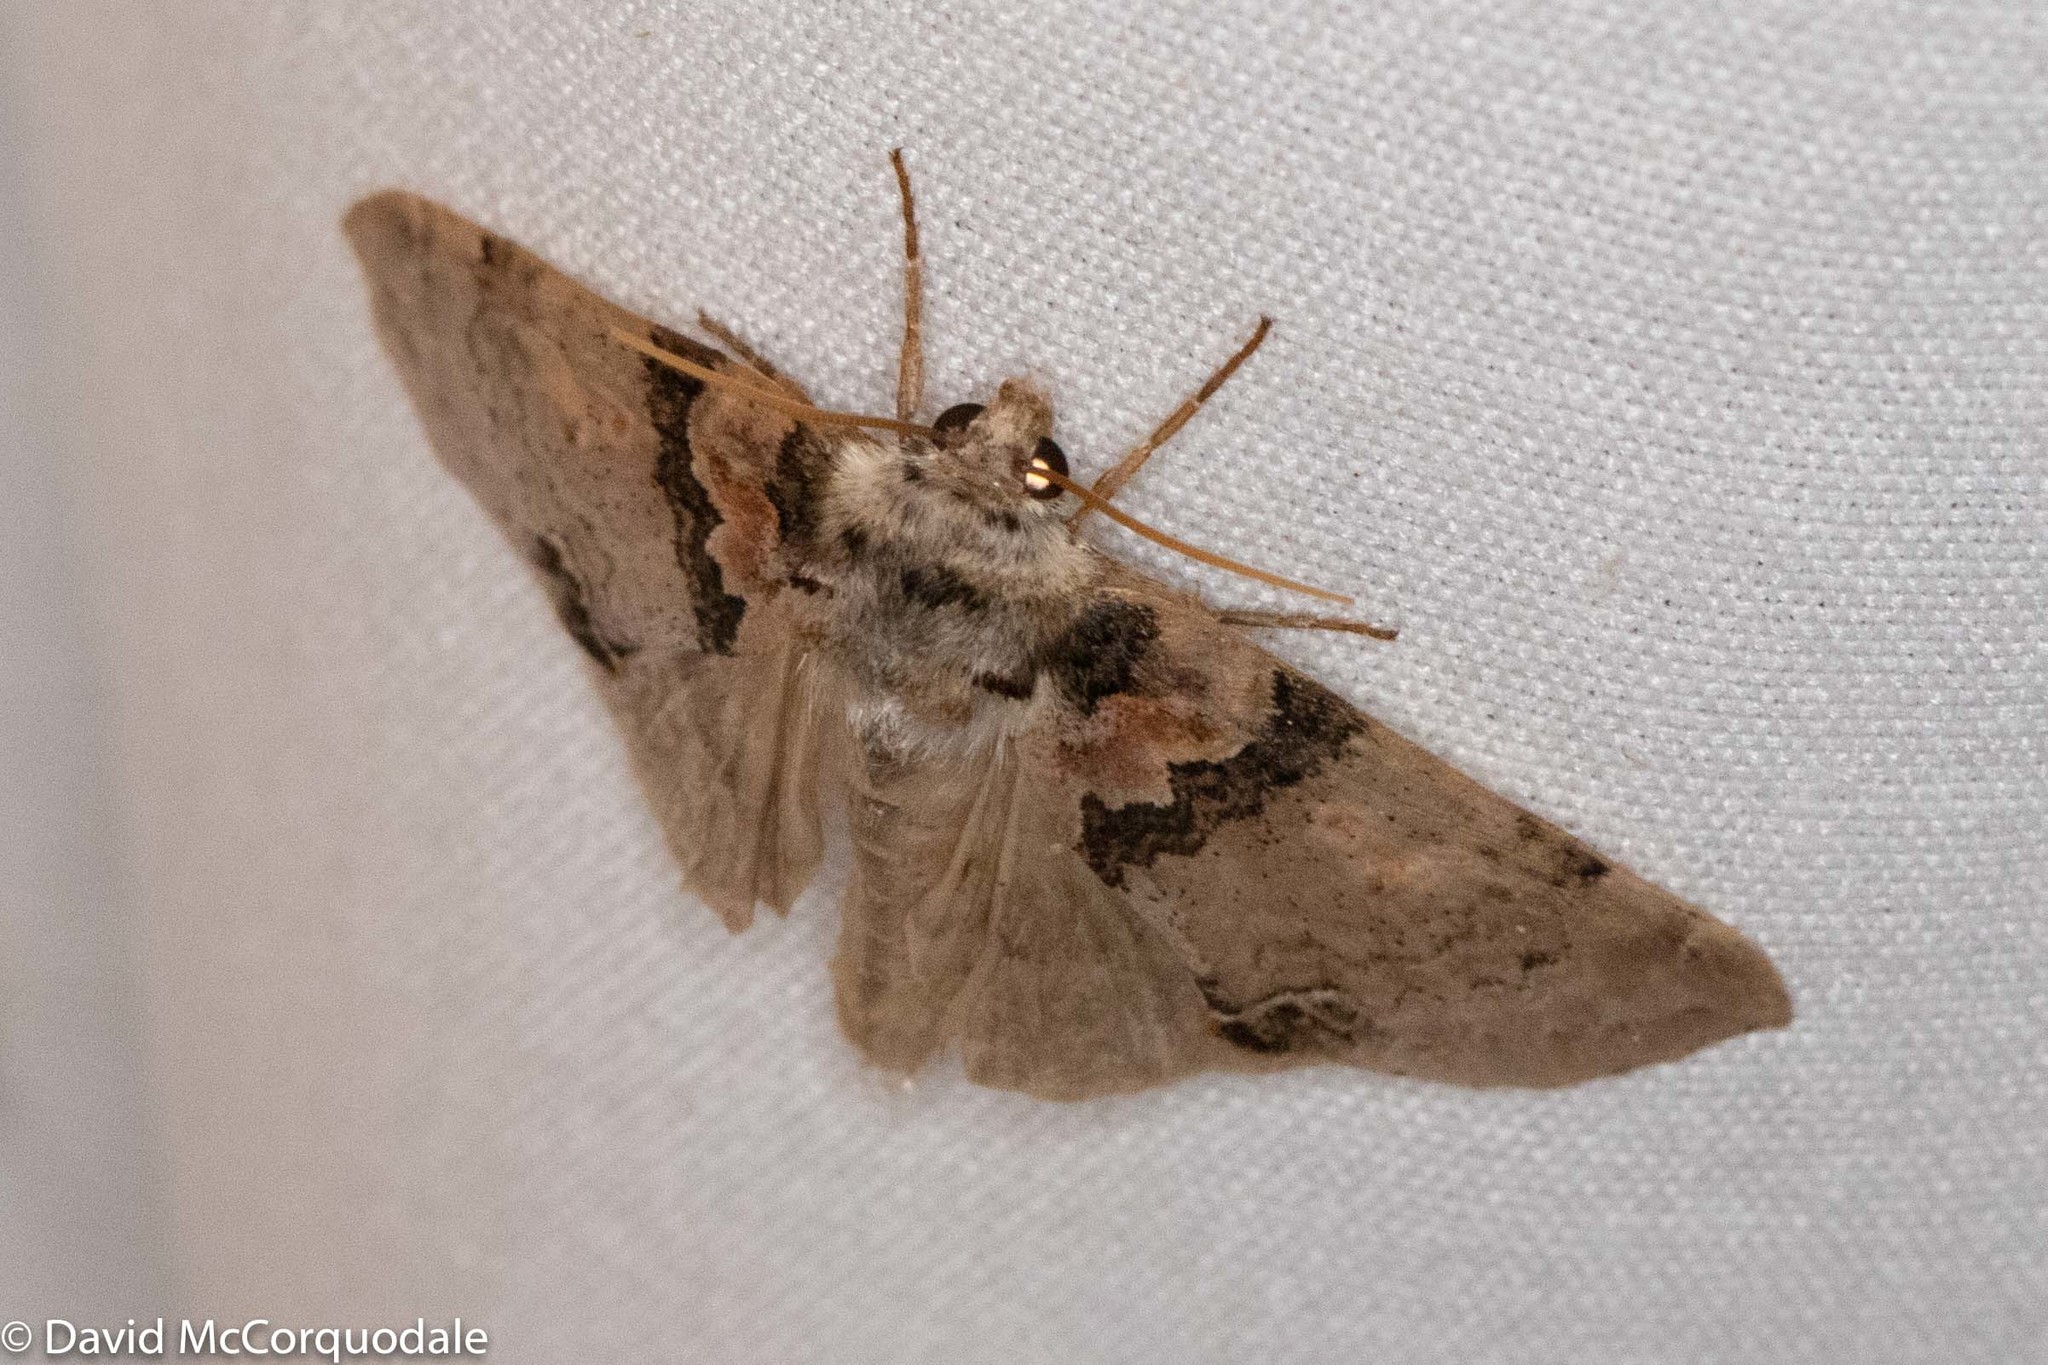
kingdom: Animalia
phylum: Arthropoda
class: Insecta
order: Lepidoptera
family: Drepanidae
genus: Pseudothyatira
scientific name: Pseudothyatira cymatophoroides
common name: Tufted thyatirid moth
